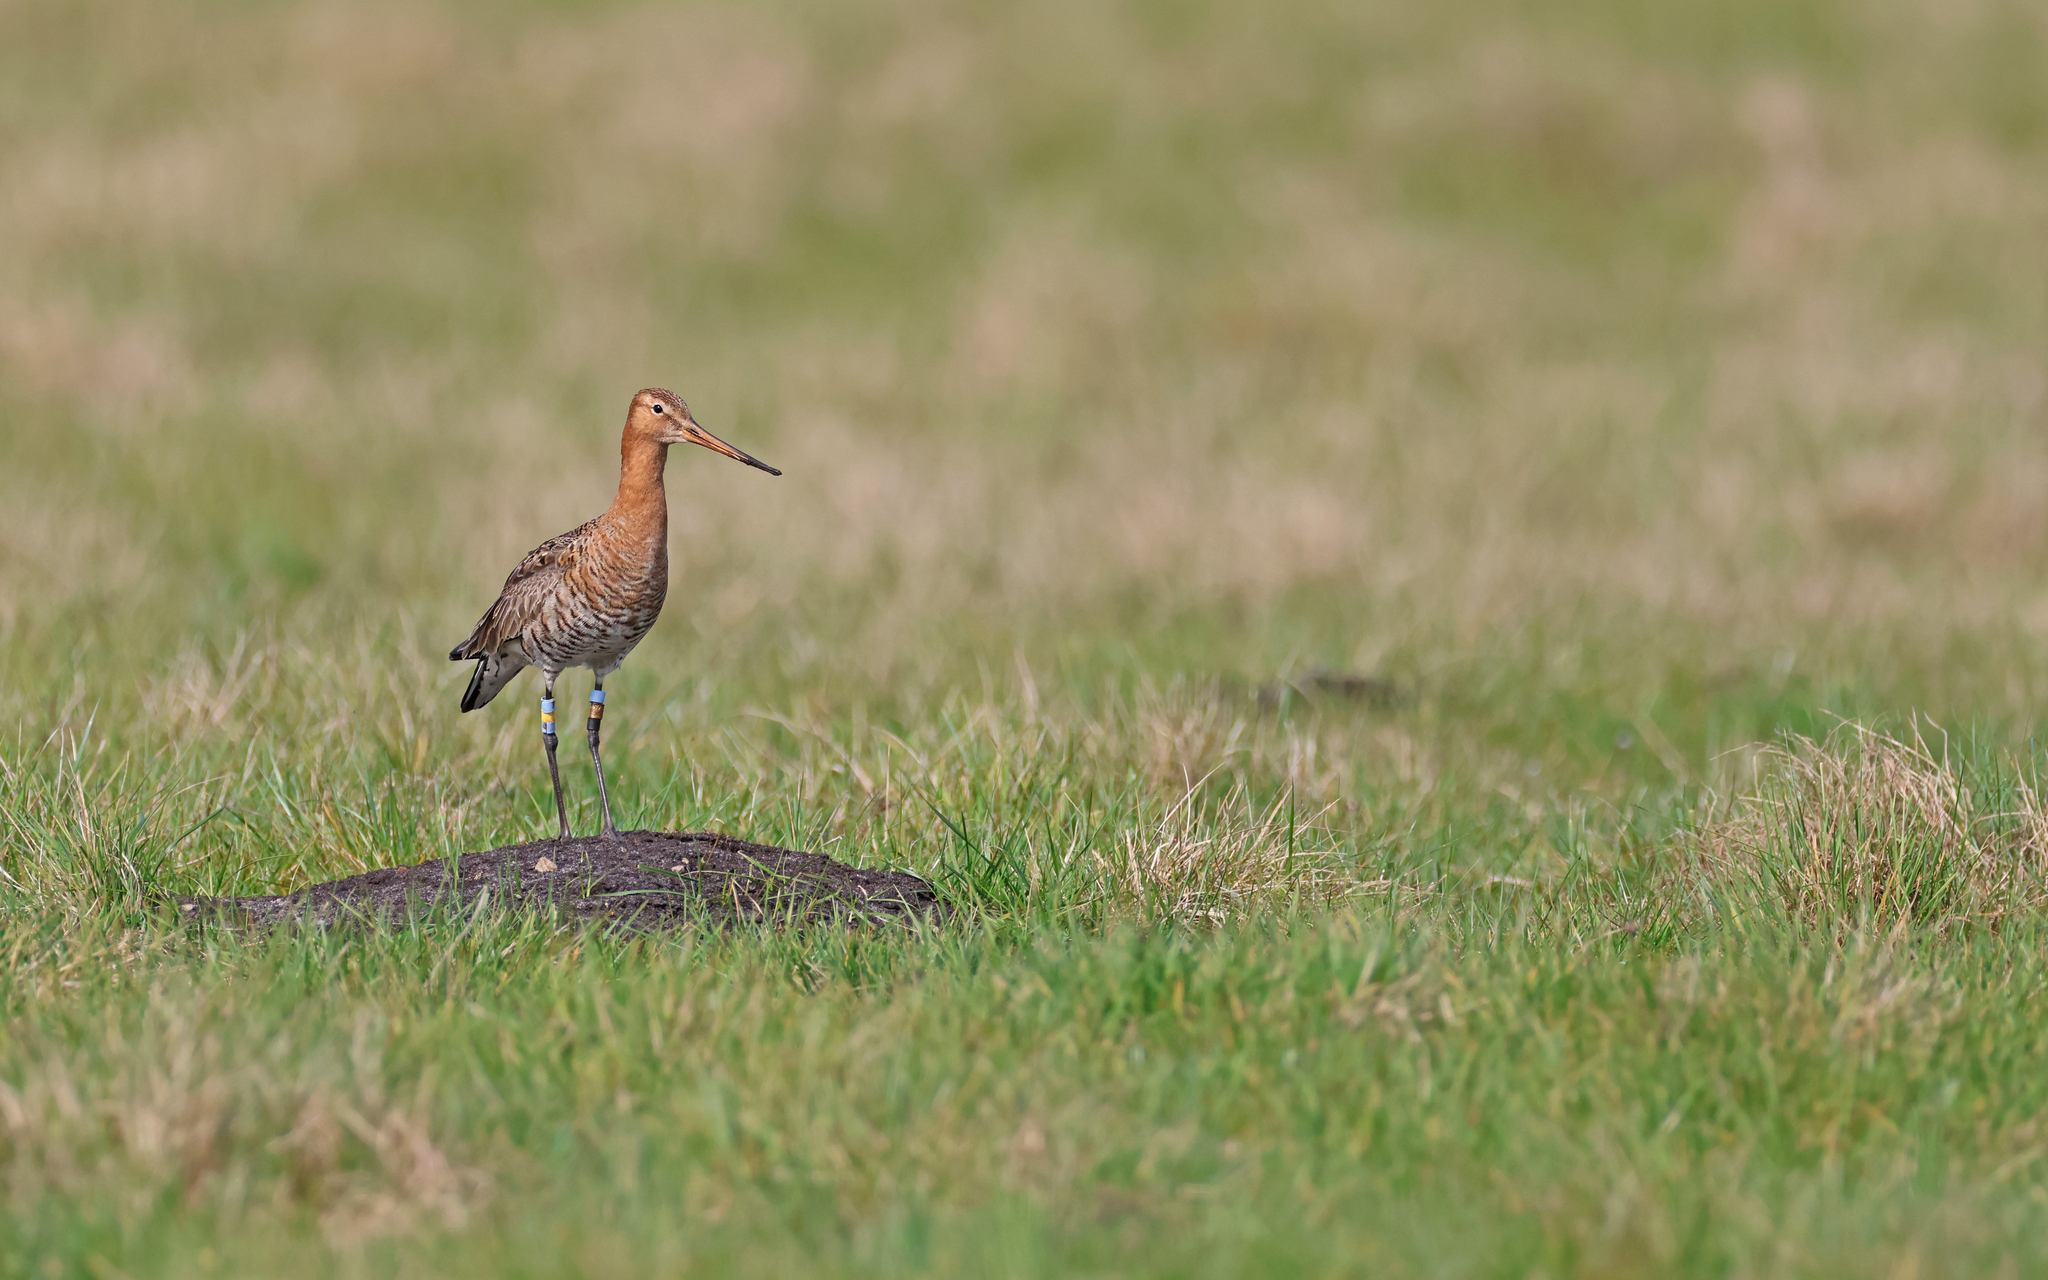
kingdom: Animalia
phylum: Chordata
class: Aves
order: Charadriiformes
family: Scolopacidae
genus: Limosa
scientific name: Limosa limosa
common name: Black-tailed godwit
